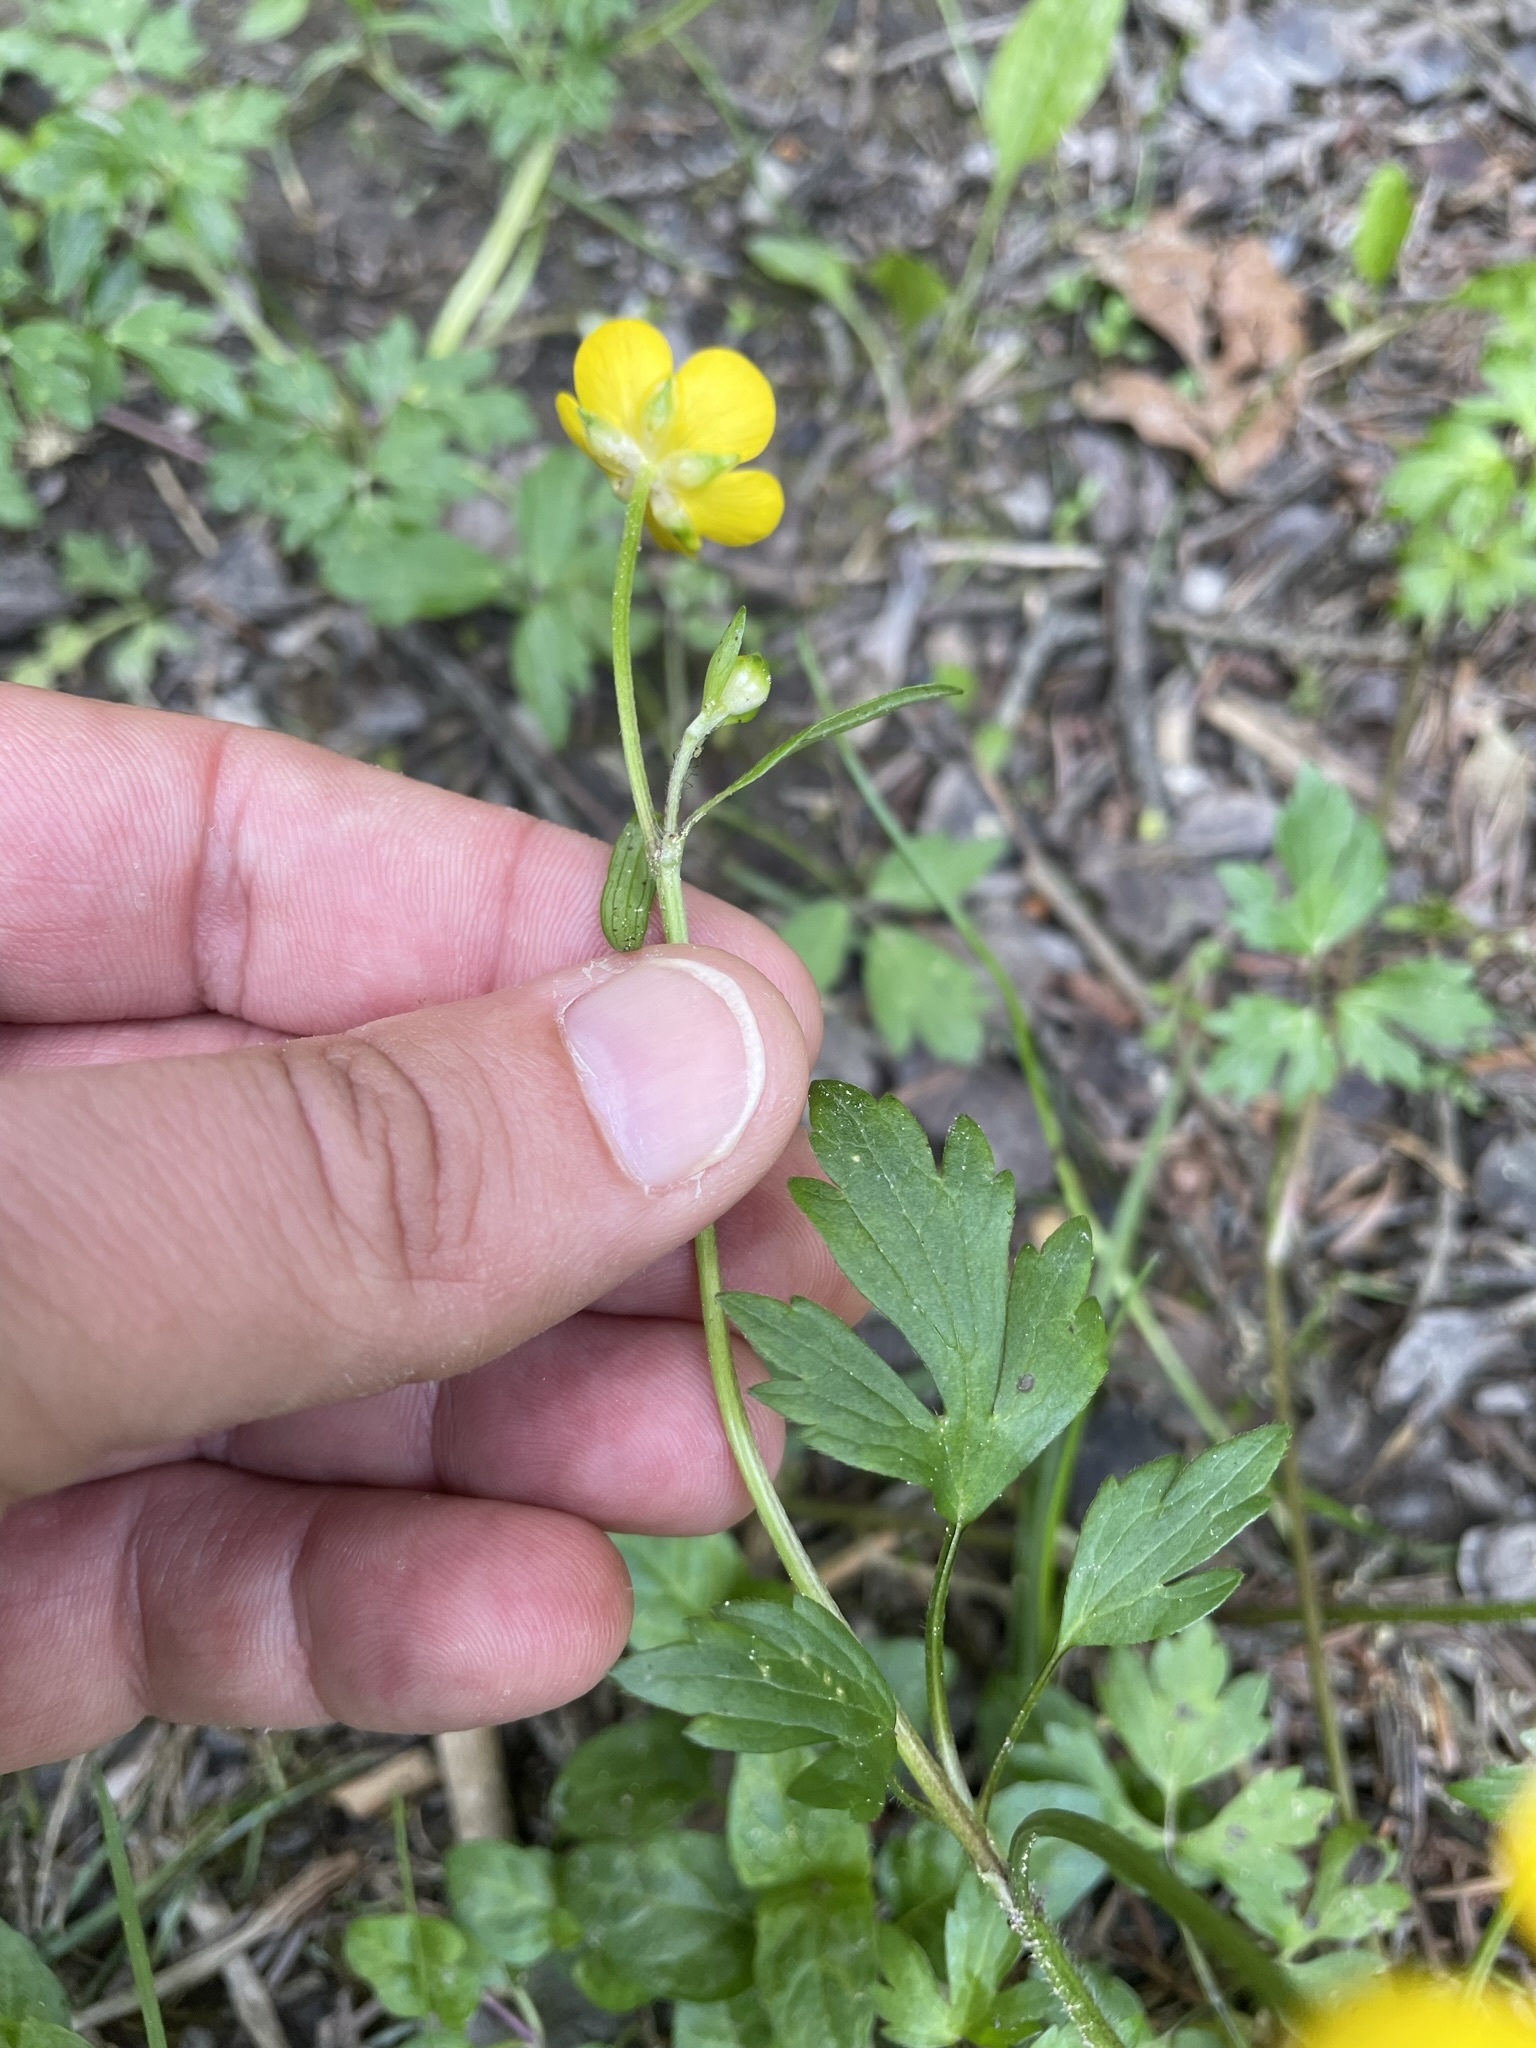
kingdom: Plantae
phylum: Tracheophyta
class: Magnoliopsida
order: Ranunculales
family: Ranunculaceae
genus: Ranunculus
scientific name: Ranunculus repens
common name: Creeping buttercup
